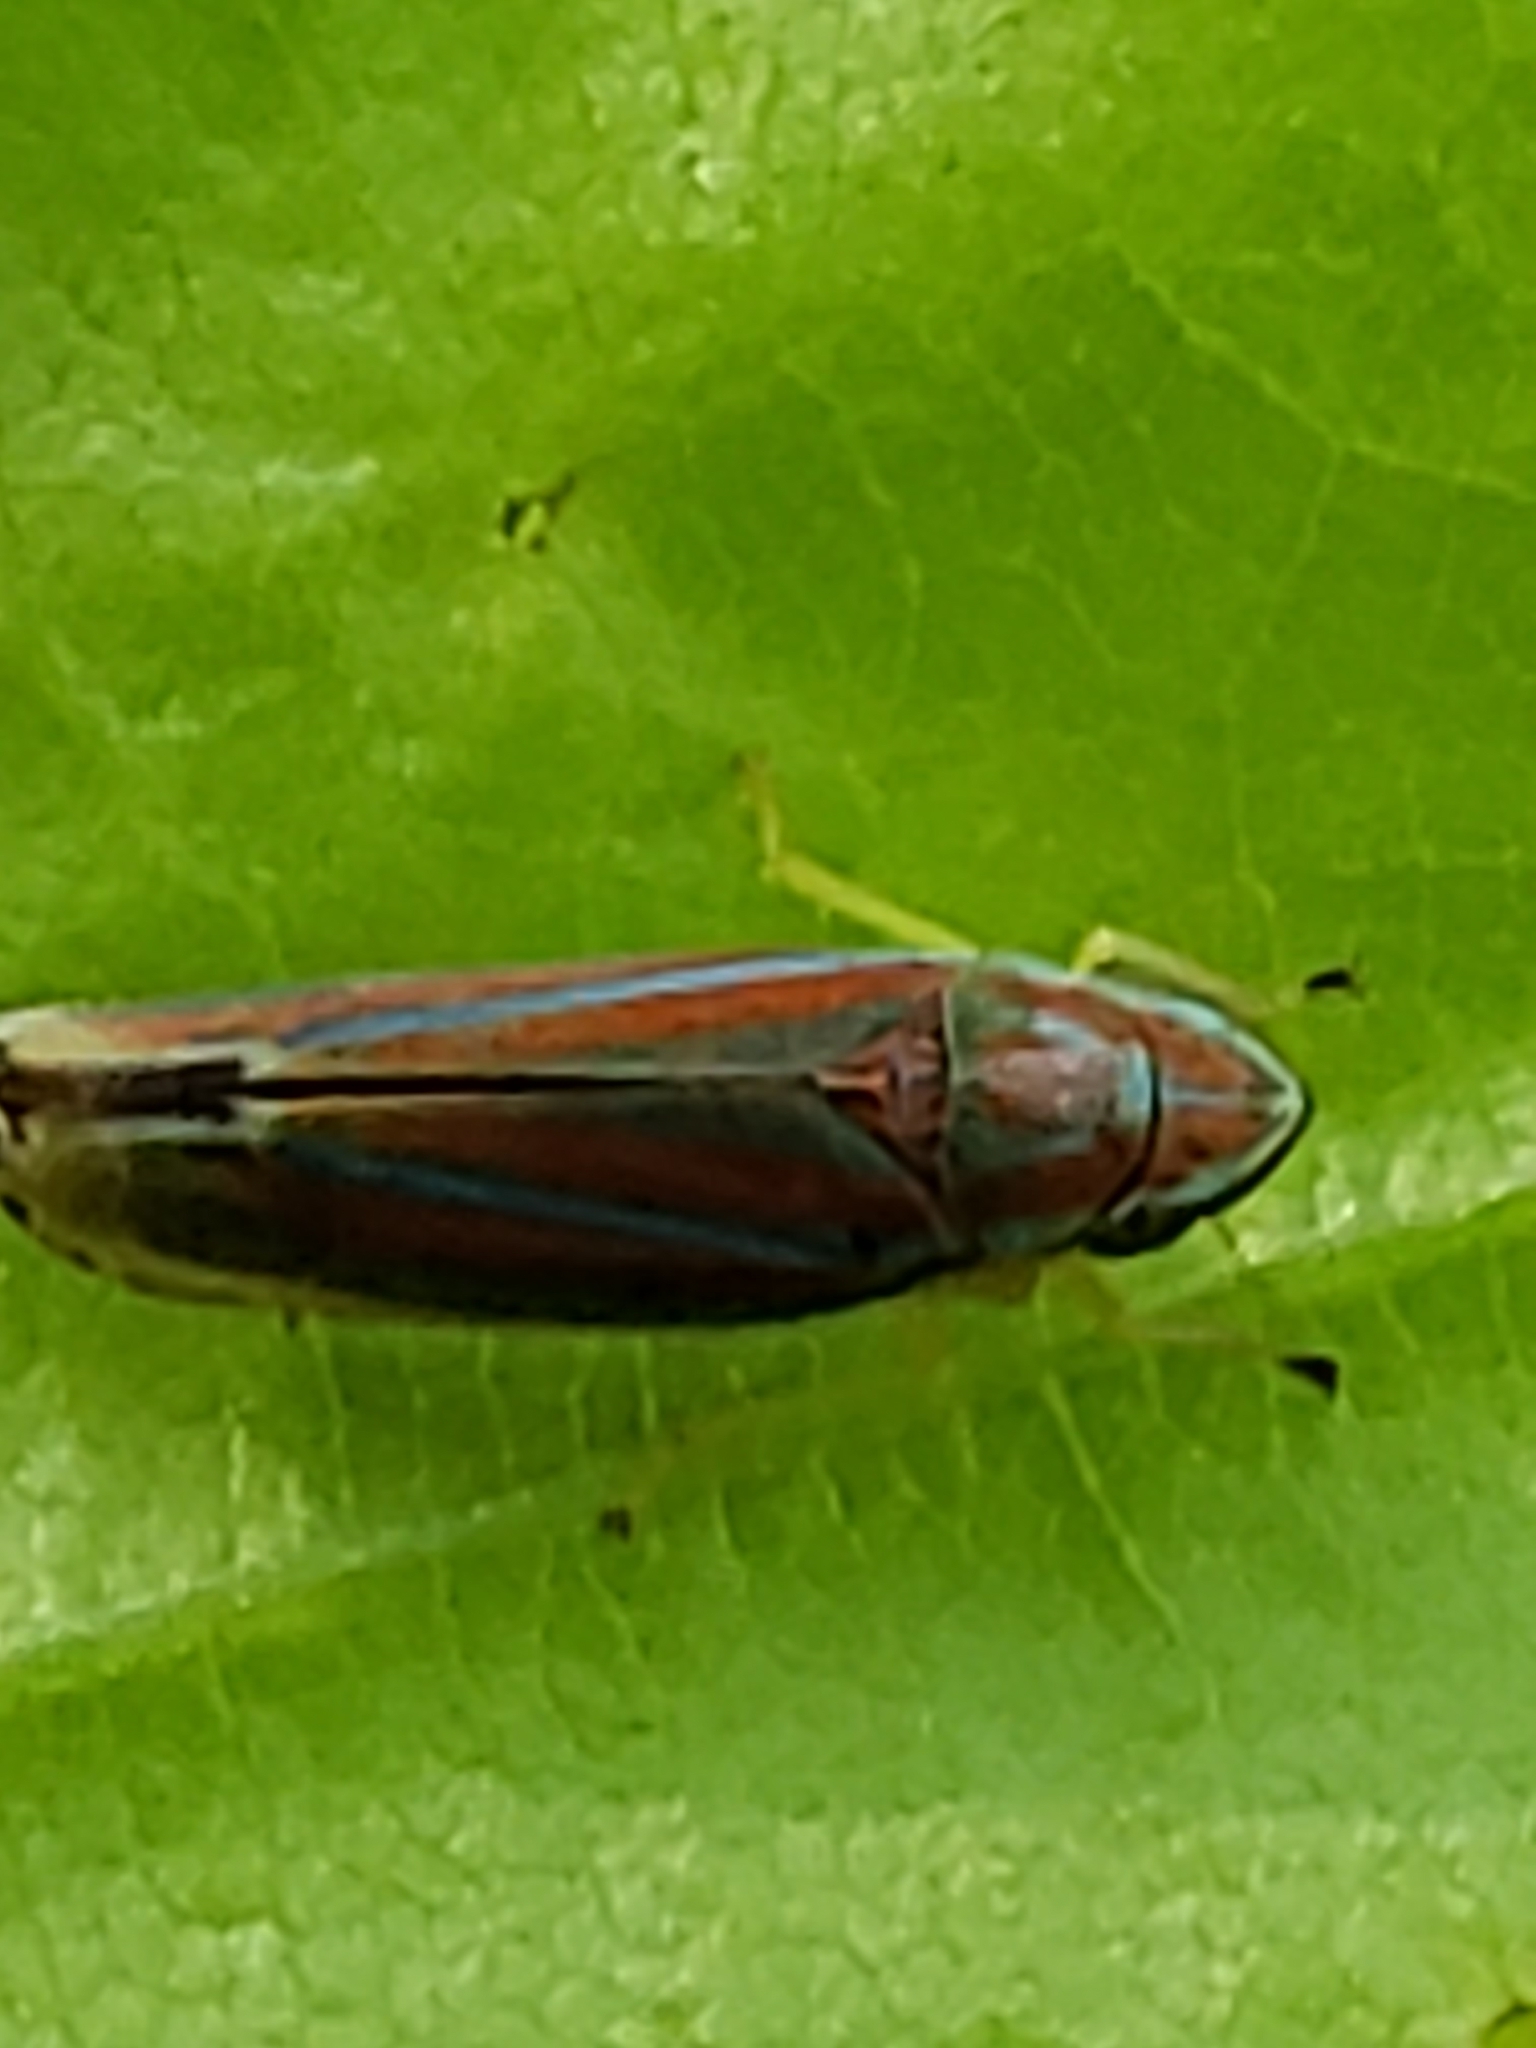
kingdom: Animalia
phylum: Arthropoda
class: Insecta
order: Hemiptera
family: Cicadellidae
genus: Graphocephala
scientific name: Graphocephala versuta
